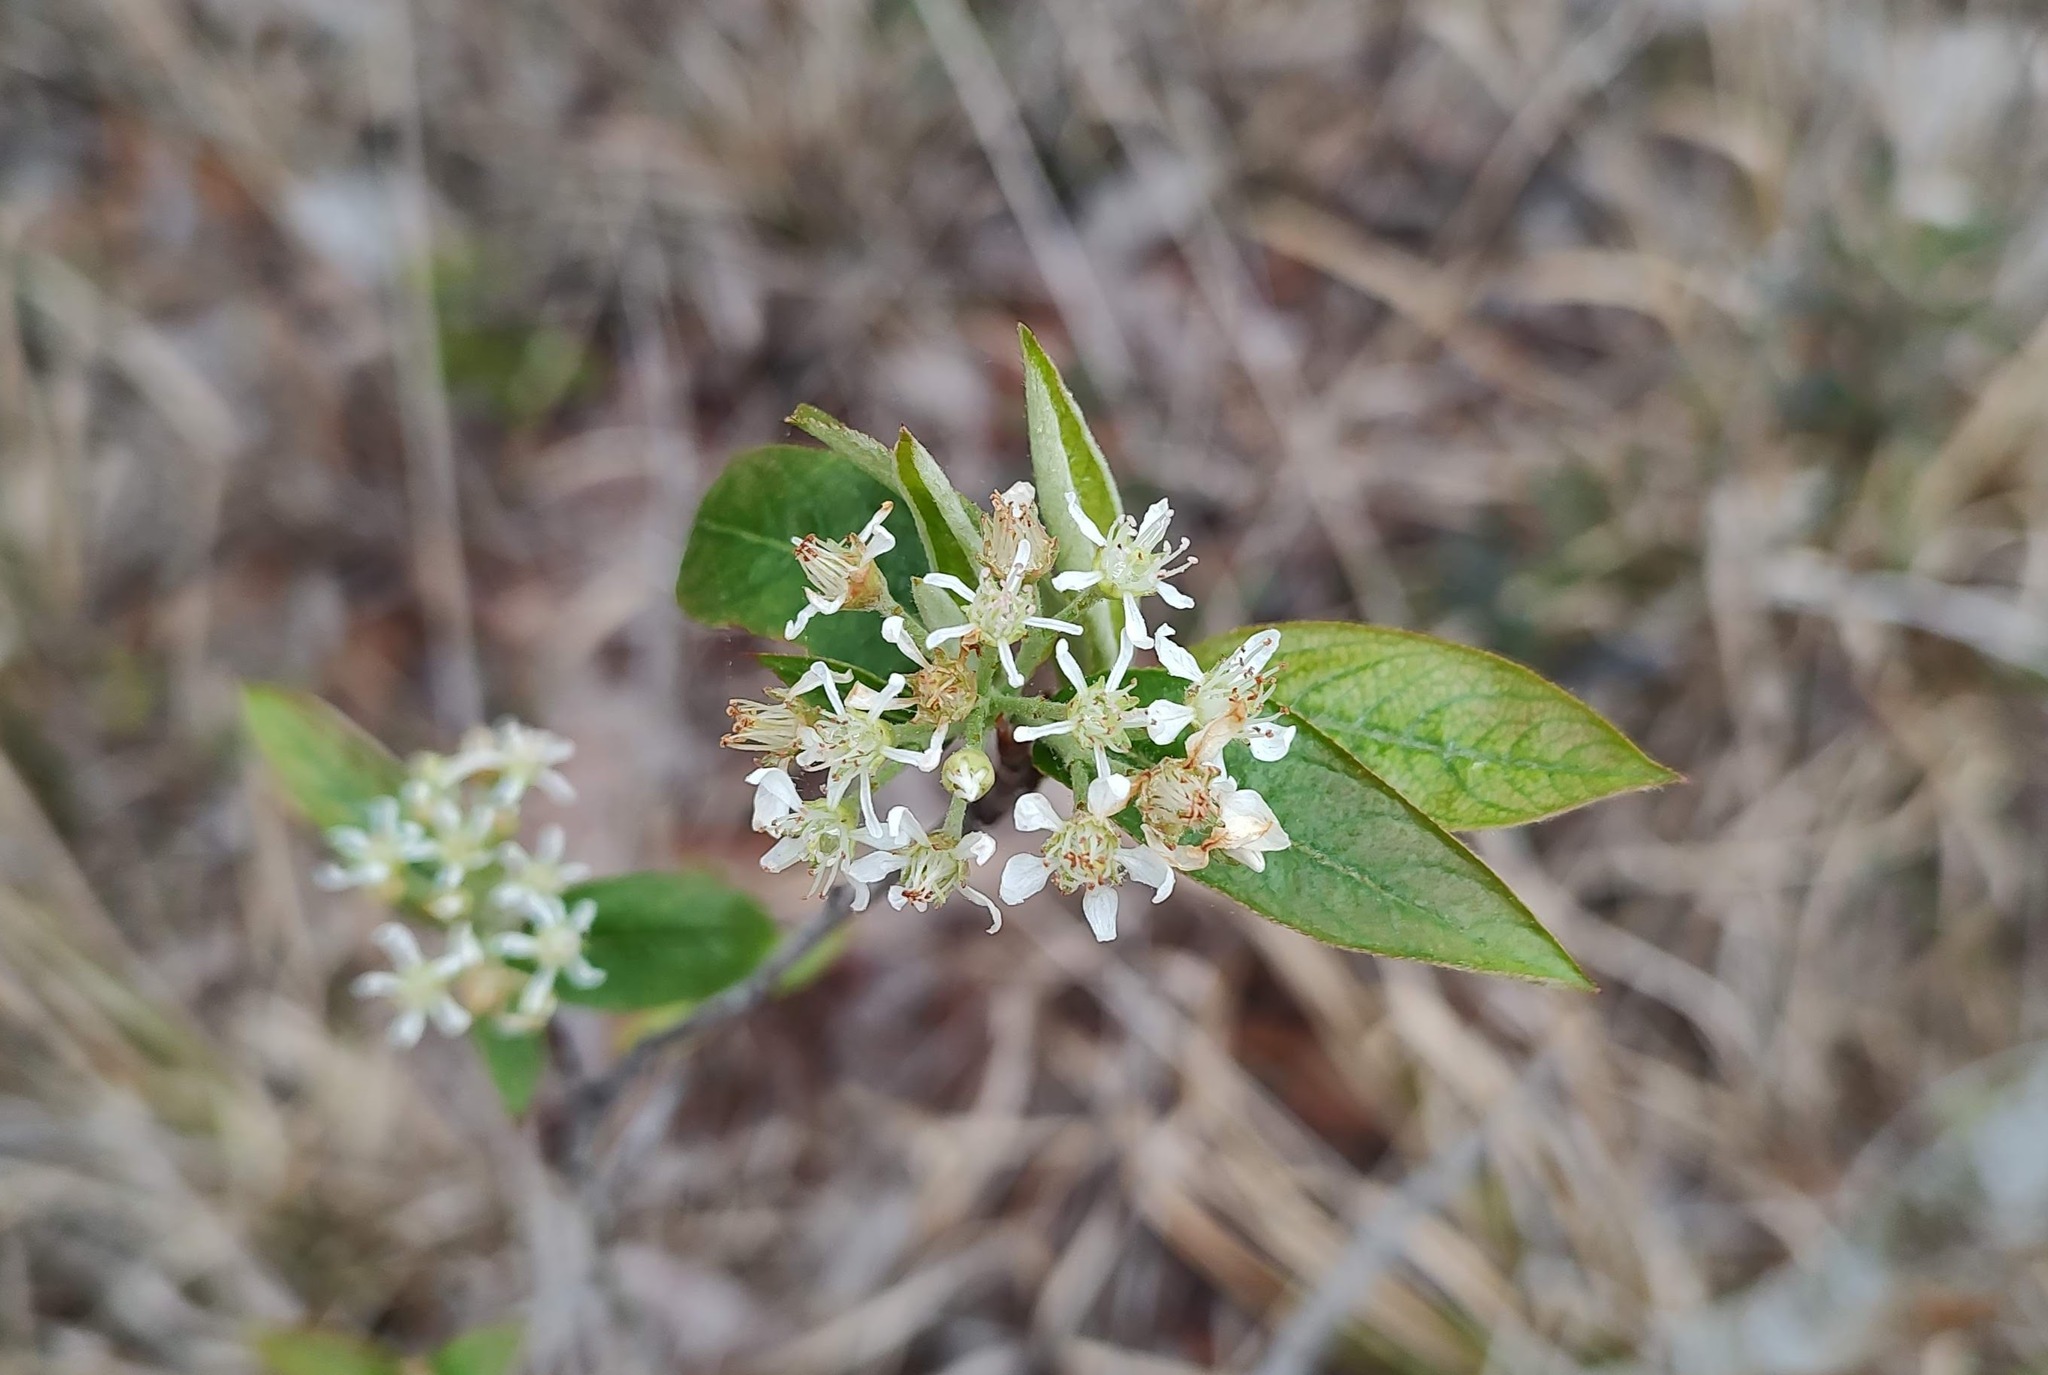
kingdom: Plantae
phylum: Tracheophyta
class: Magnoliopsida
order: Rosales
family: Rosaceae
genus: Aronia
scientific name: Aronia arbutifolia
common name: Red chokeberry
